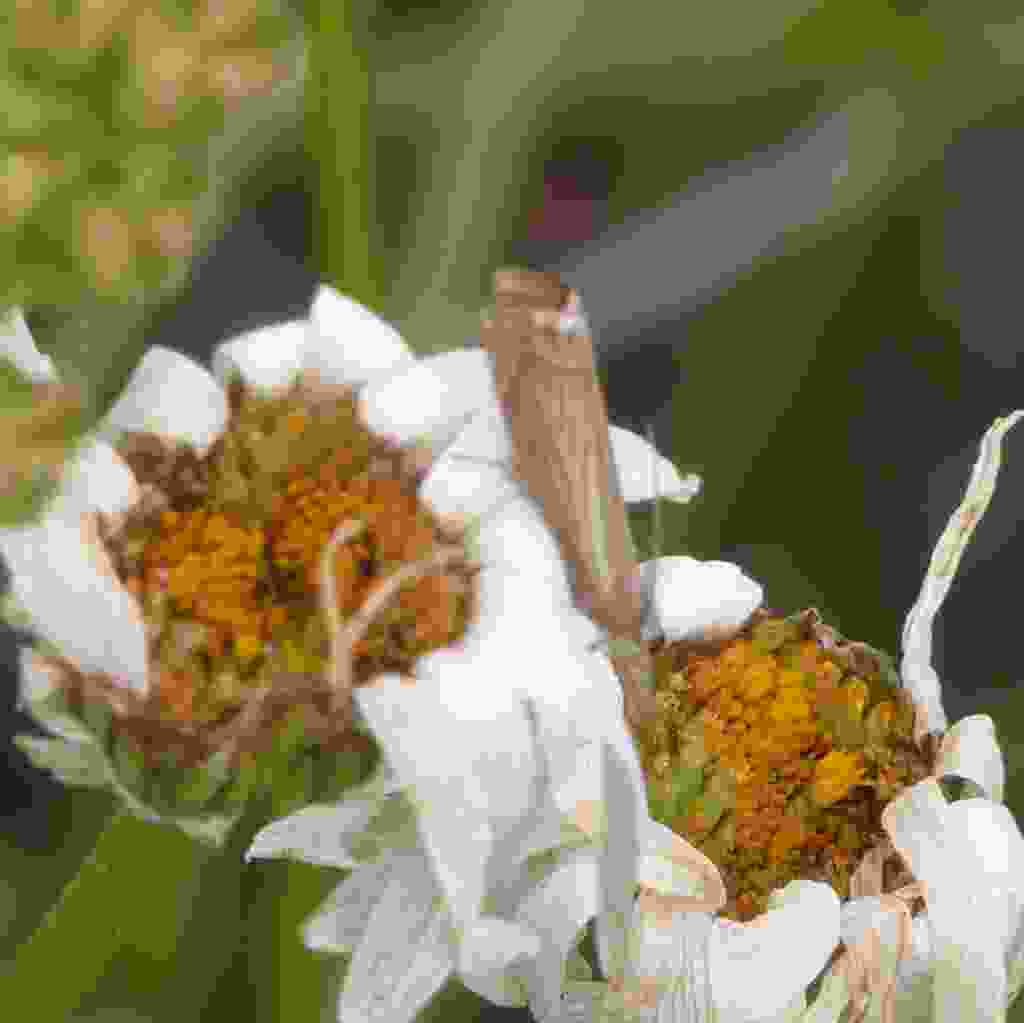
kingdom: Animalia
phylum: Arthropoda
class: Insecta
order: Lepidoptera
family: Crambidae
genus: Chrysoteuchia
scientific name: Chrysoteuchia culmella
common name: Garden grass-veneer
